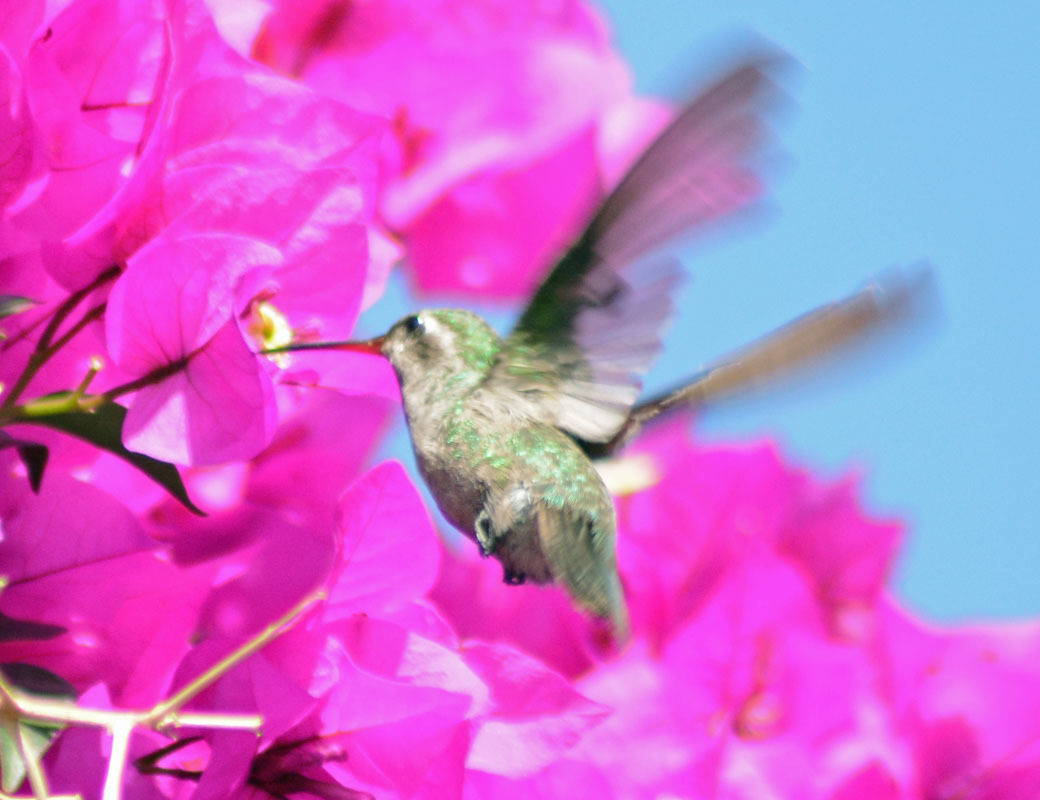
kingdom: Animalia
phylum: Chordata
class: Aves
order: Apodiformes
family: Trochilidae
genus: Cynanthus
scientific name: Cynanthus latirostris
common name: Broad-billed hummingbird
